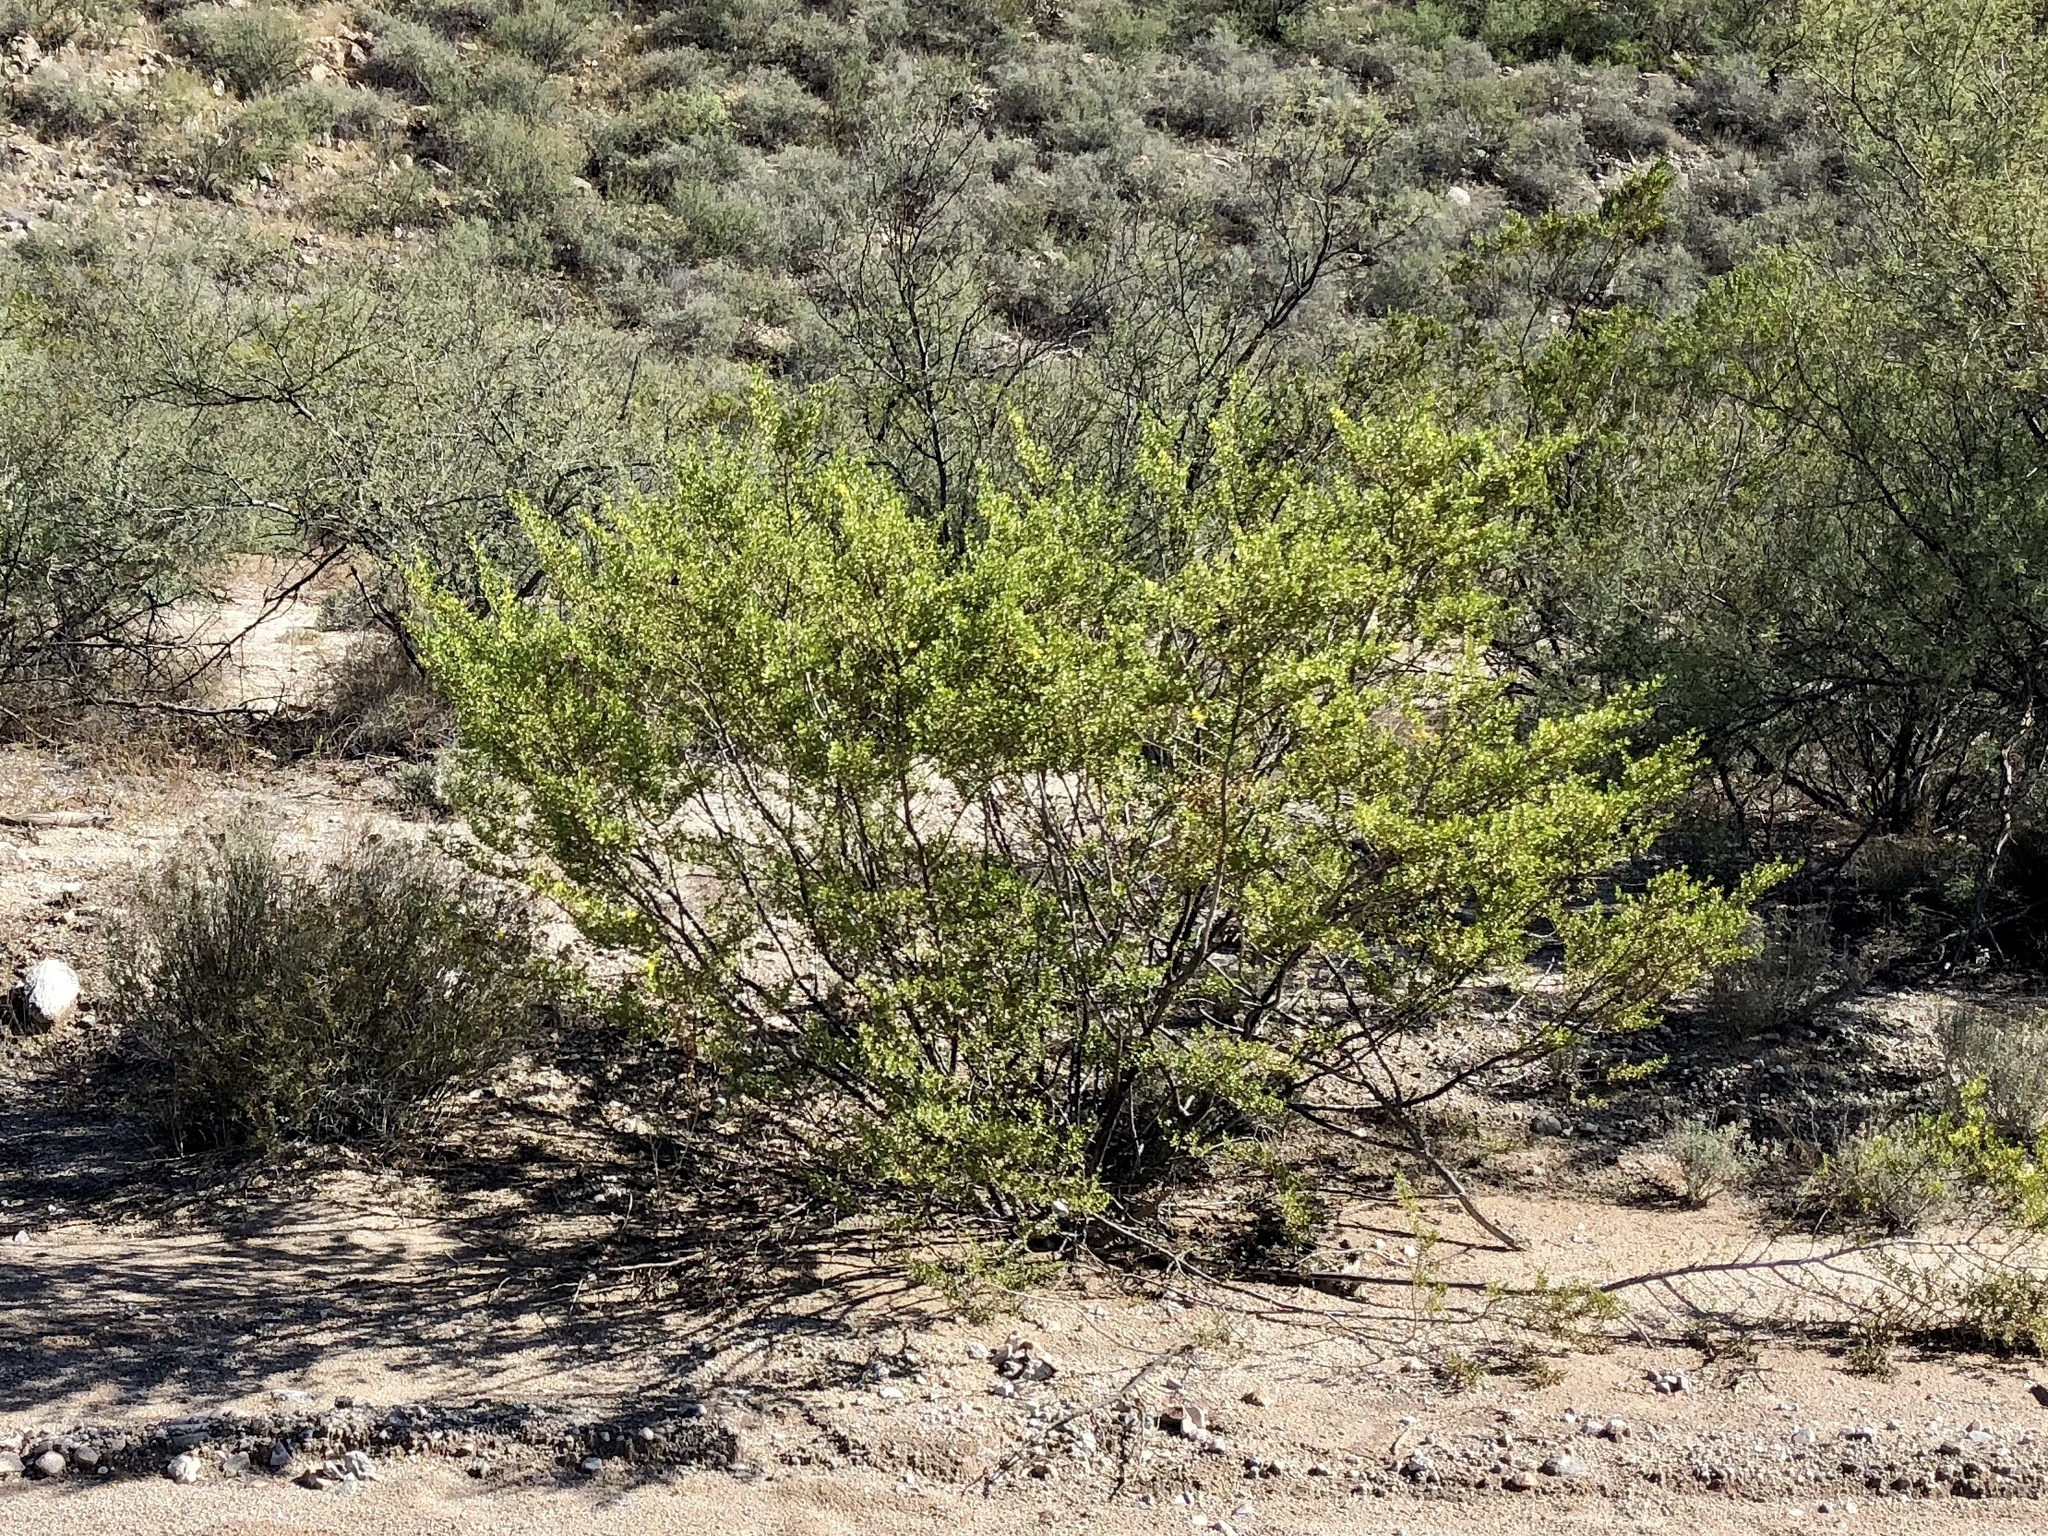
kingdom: Plantae
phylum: Tracheophyta
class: Magnoliopsida
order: Zygophyllales
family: Zygophyllaceae
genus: Larrea
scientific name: Larrea tridentata
